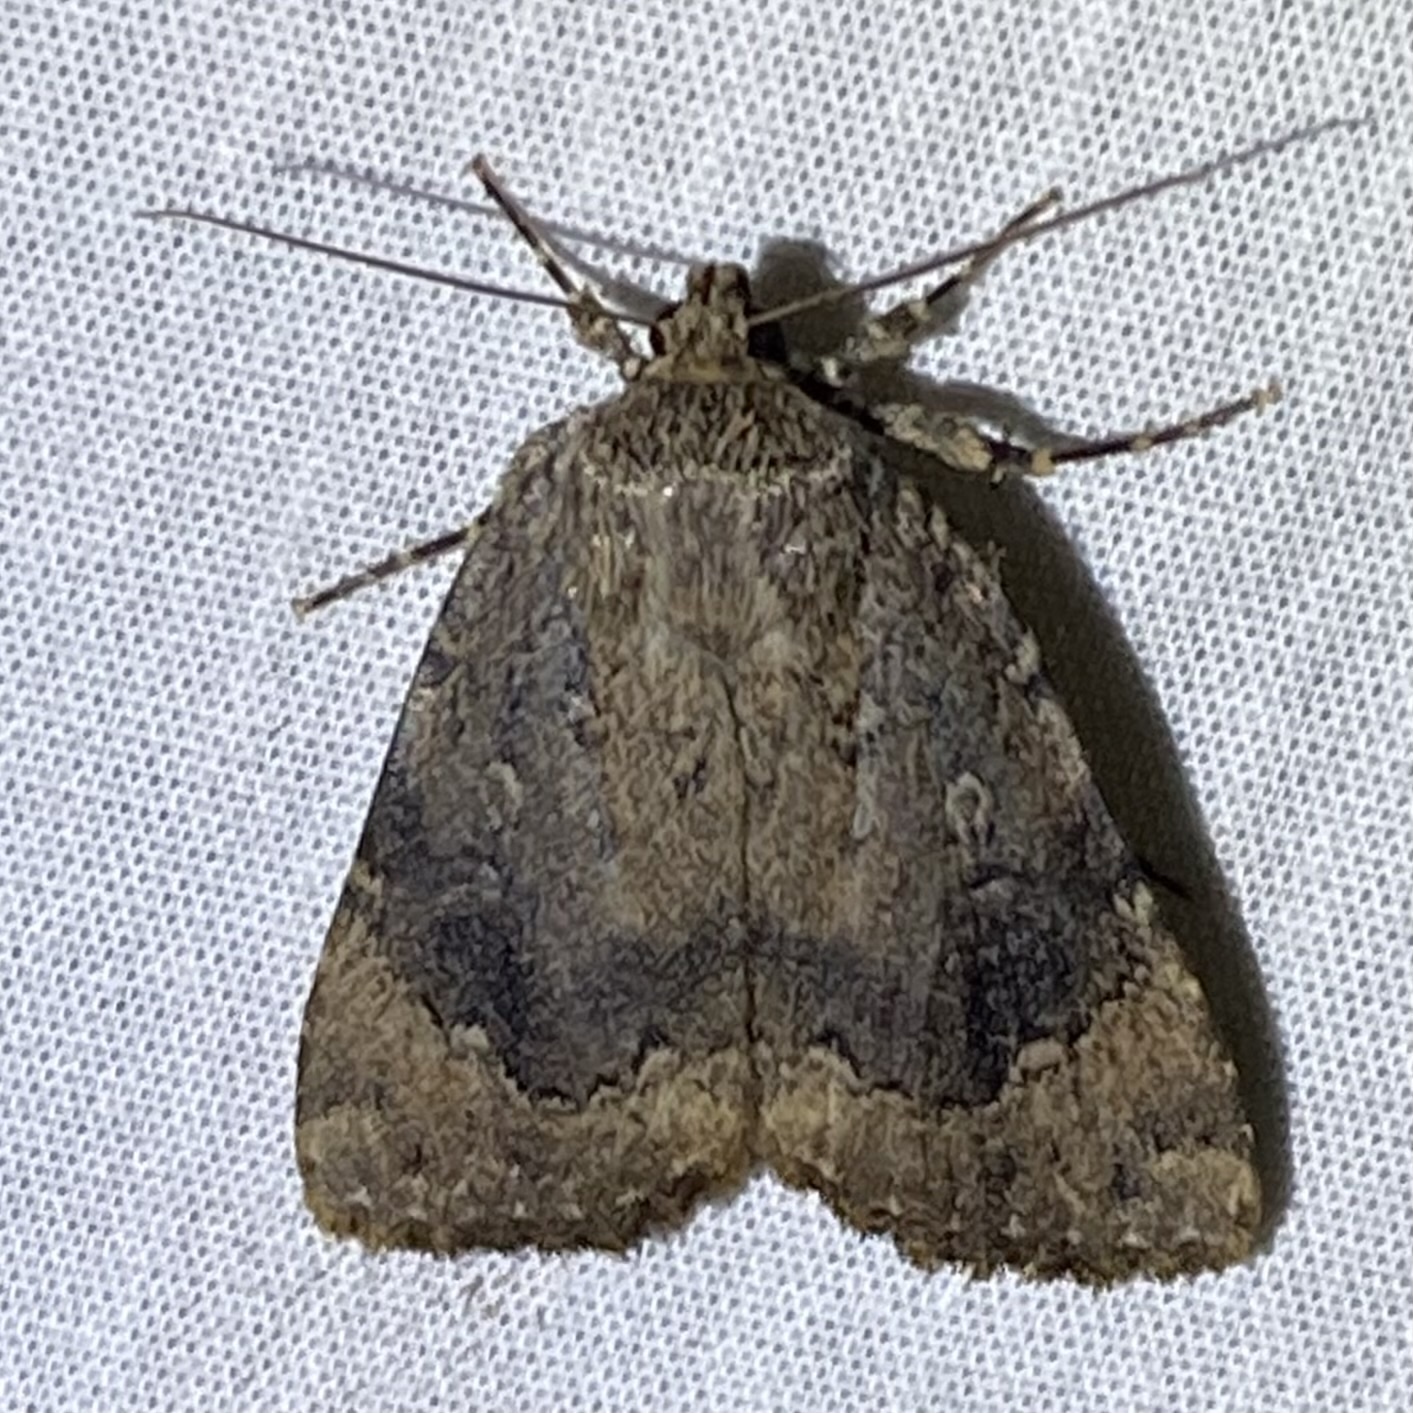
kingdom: Animalia
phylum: Arthropoda
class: Insecta
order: Lepidoptera
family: Noctuidae
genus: Amphipyra
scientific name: Amphipyra pyramidoides
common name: American copper underwing
